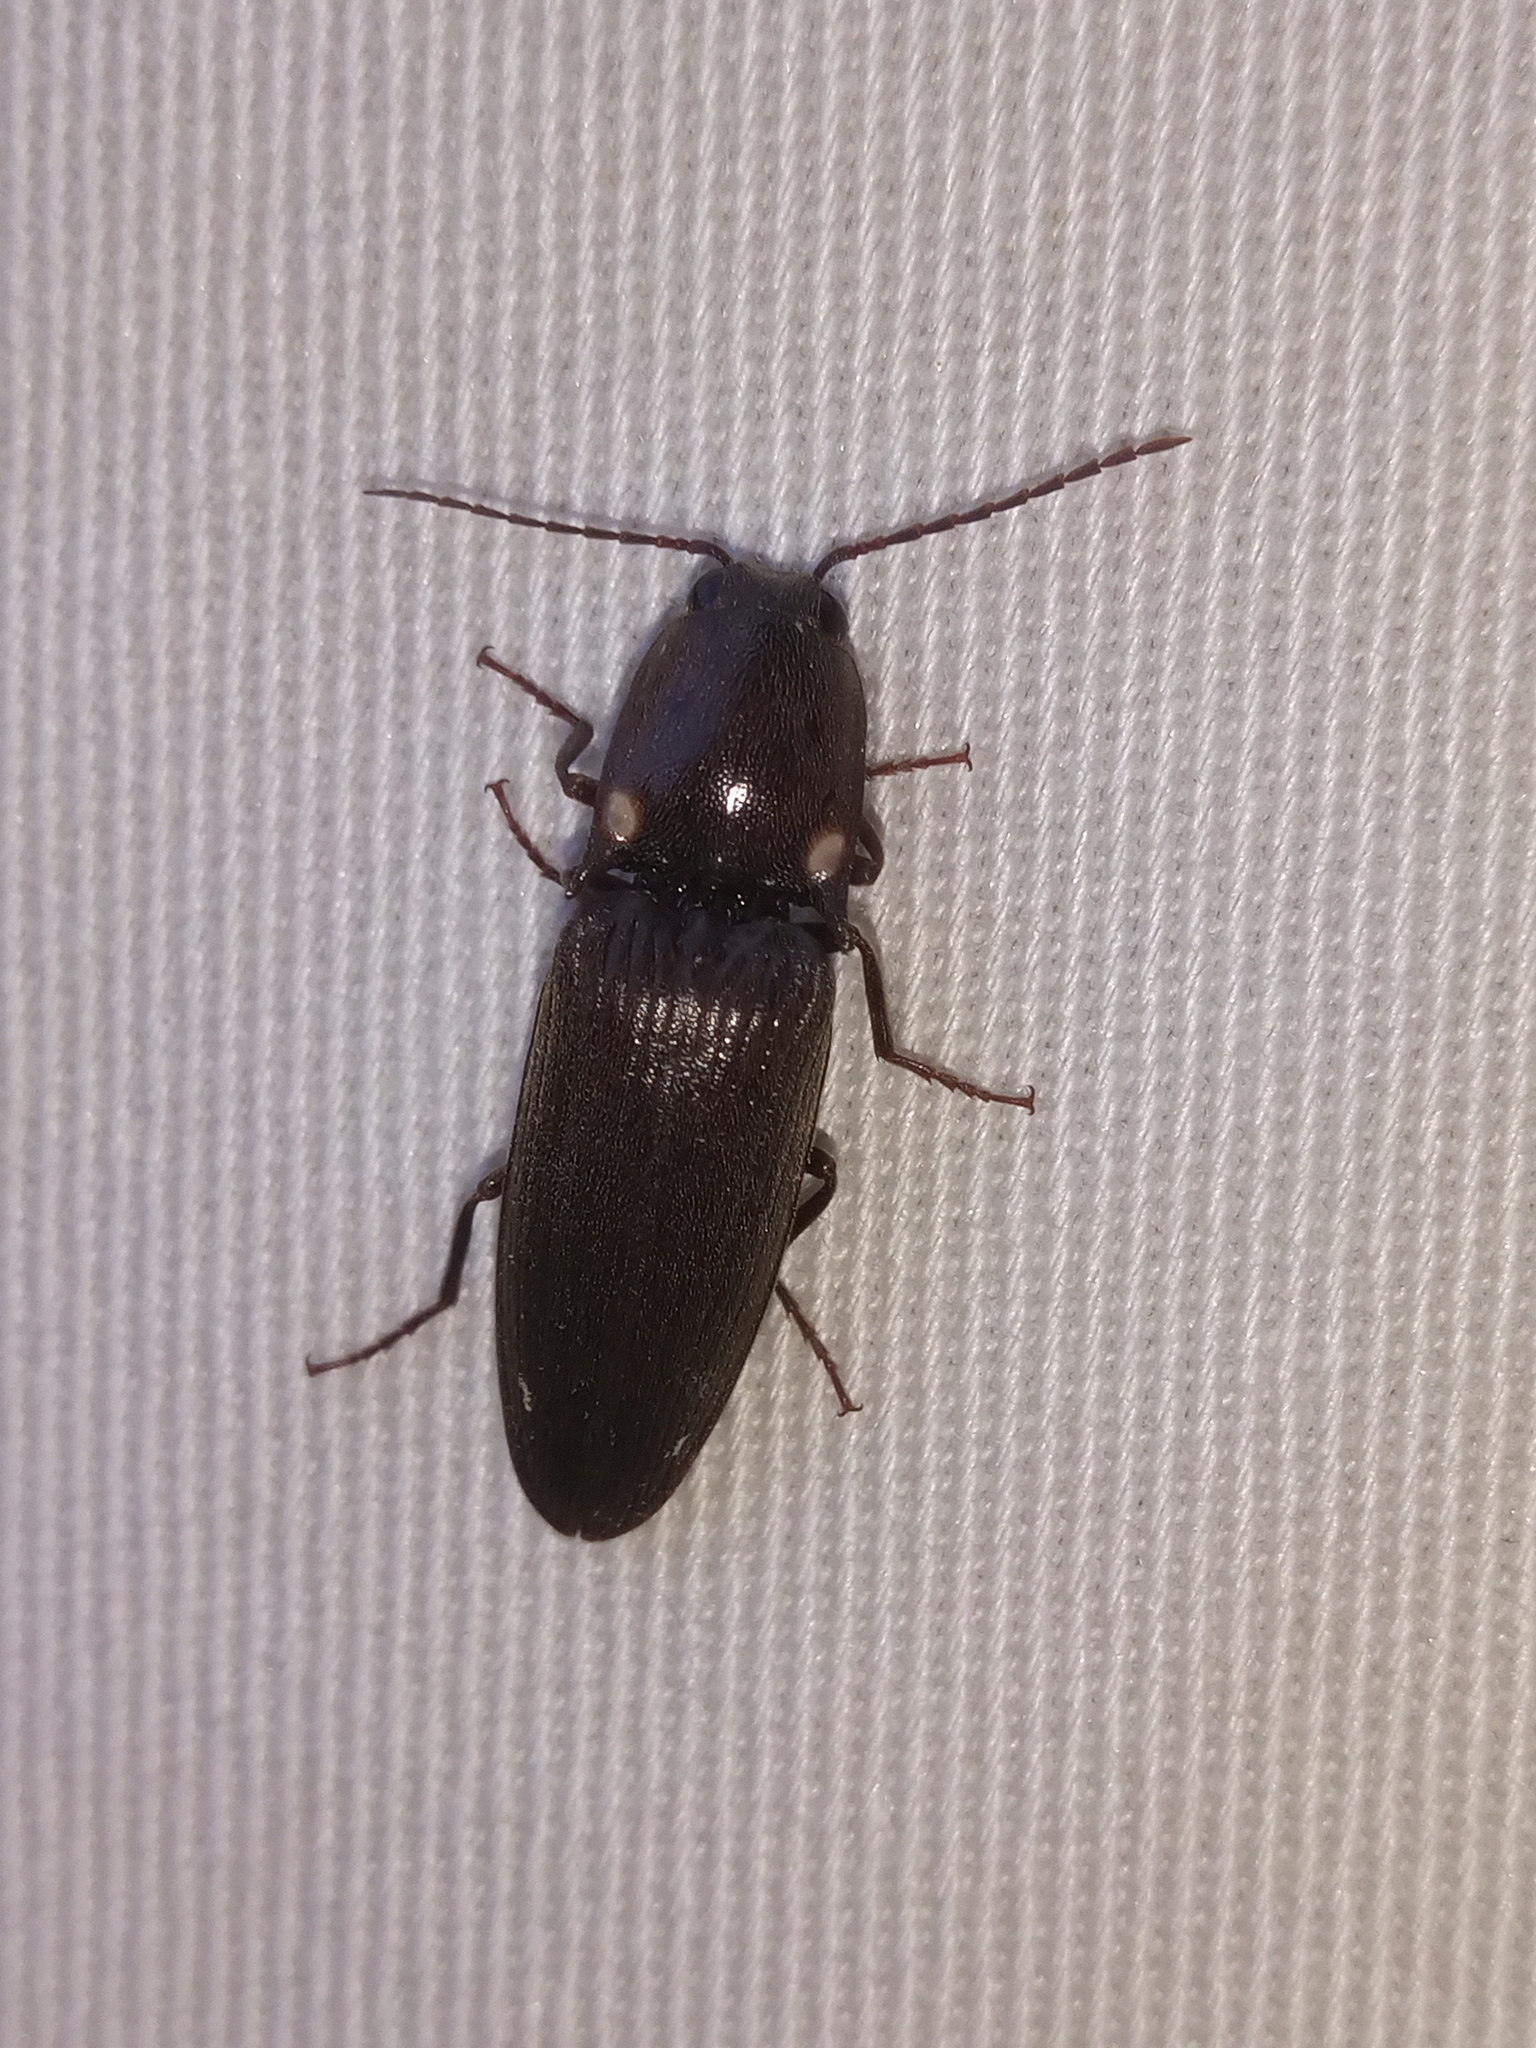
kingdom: Animalia
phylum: Arthropoda
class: Insecta
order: Coleoptera
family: Elateridae
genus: Deilelater
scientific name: Deilelater
